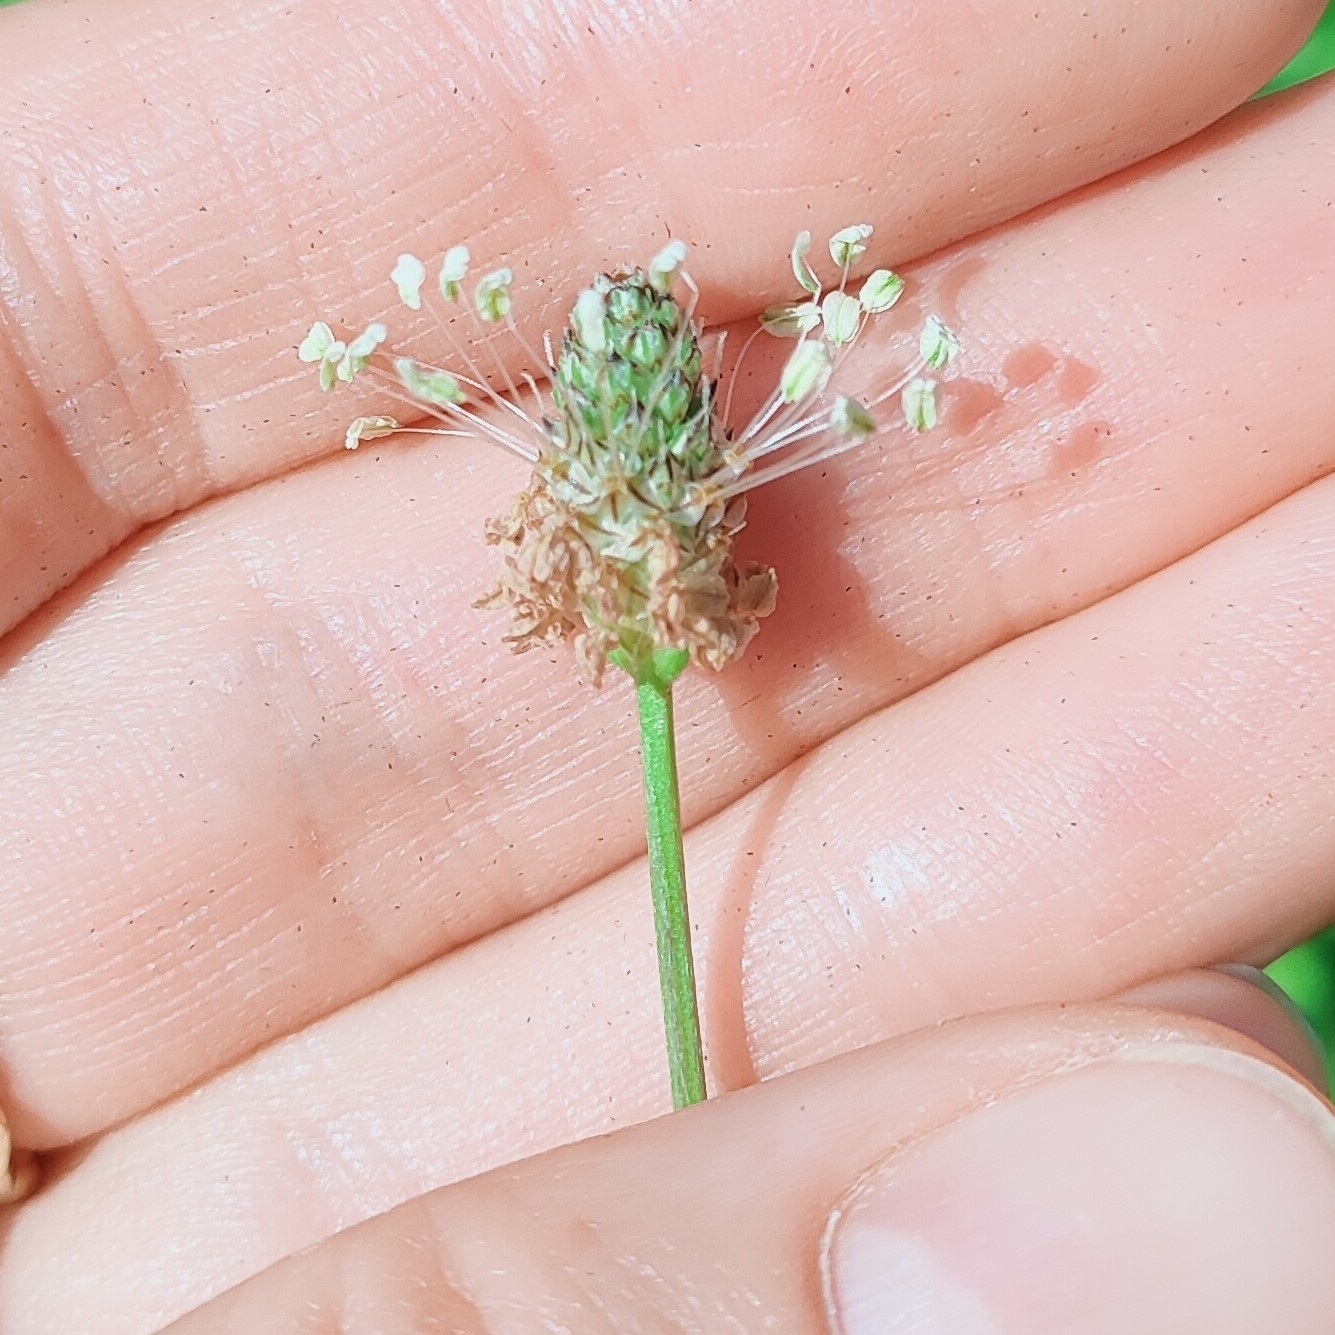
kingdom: Plantae
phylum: Tracheophyta
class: Magnoliopsida
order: Lamiales
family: Plantaginaceae
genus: Plantago
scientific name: Plantago lanceolata
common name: Ribwort plantain
